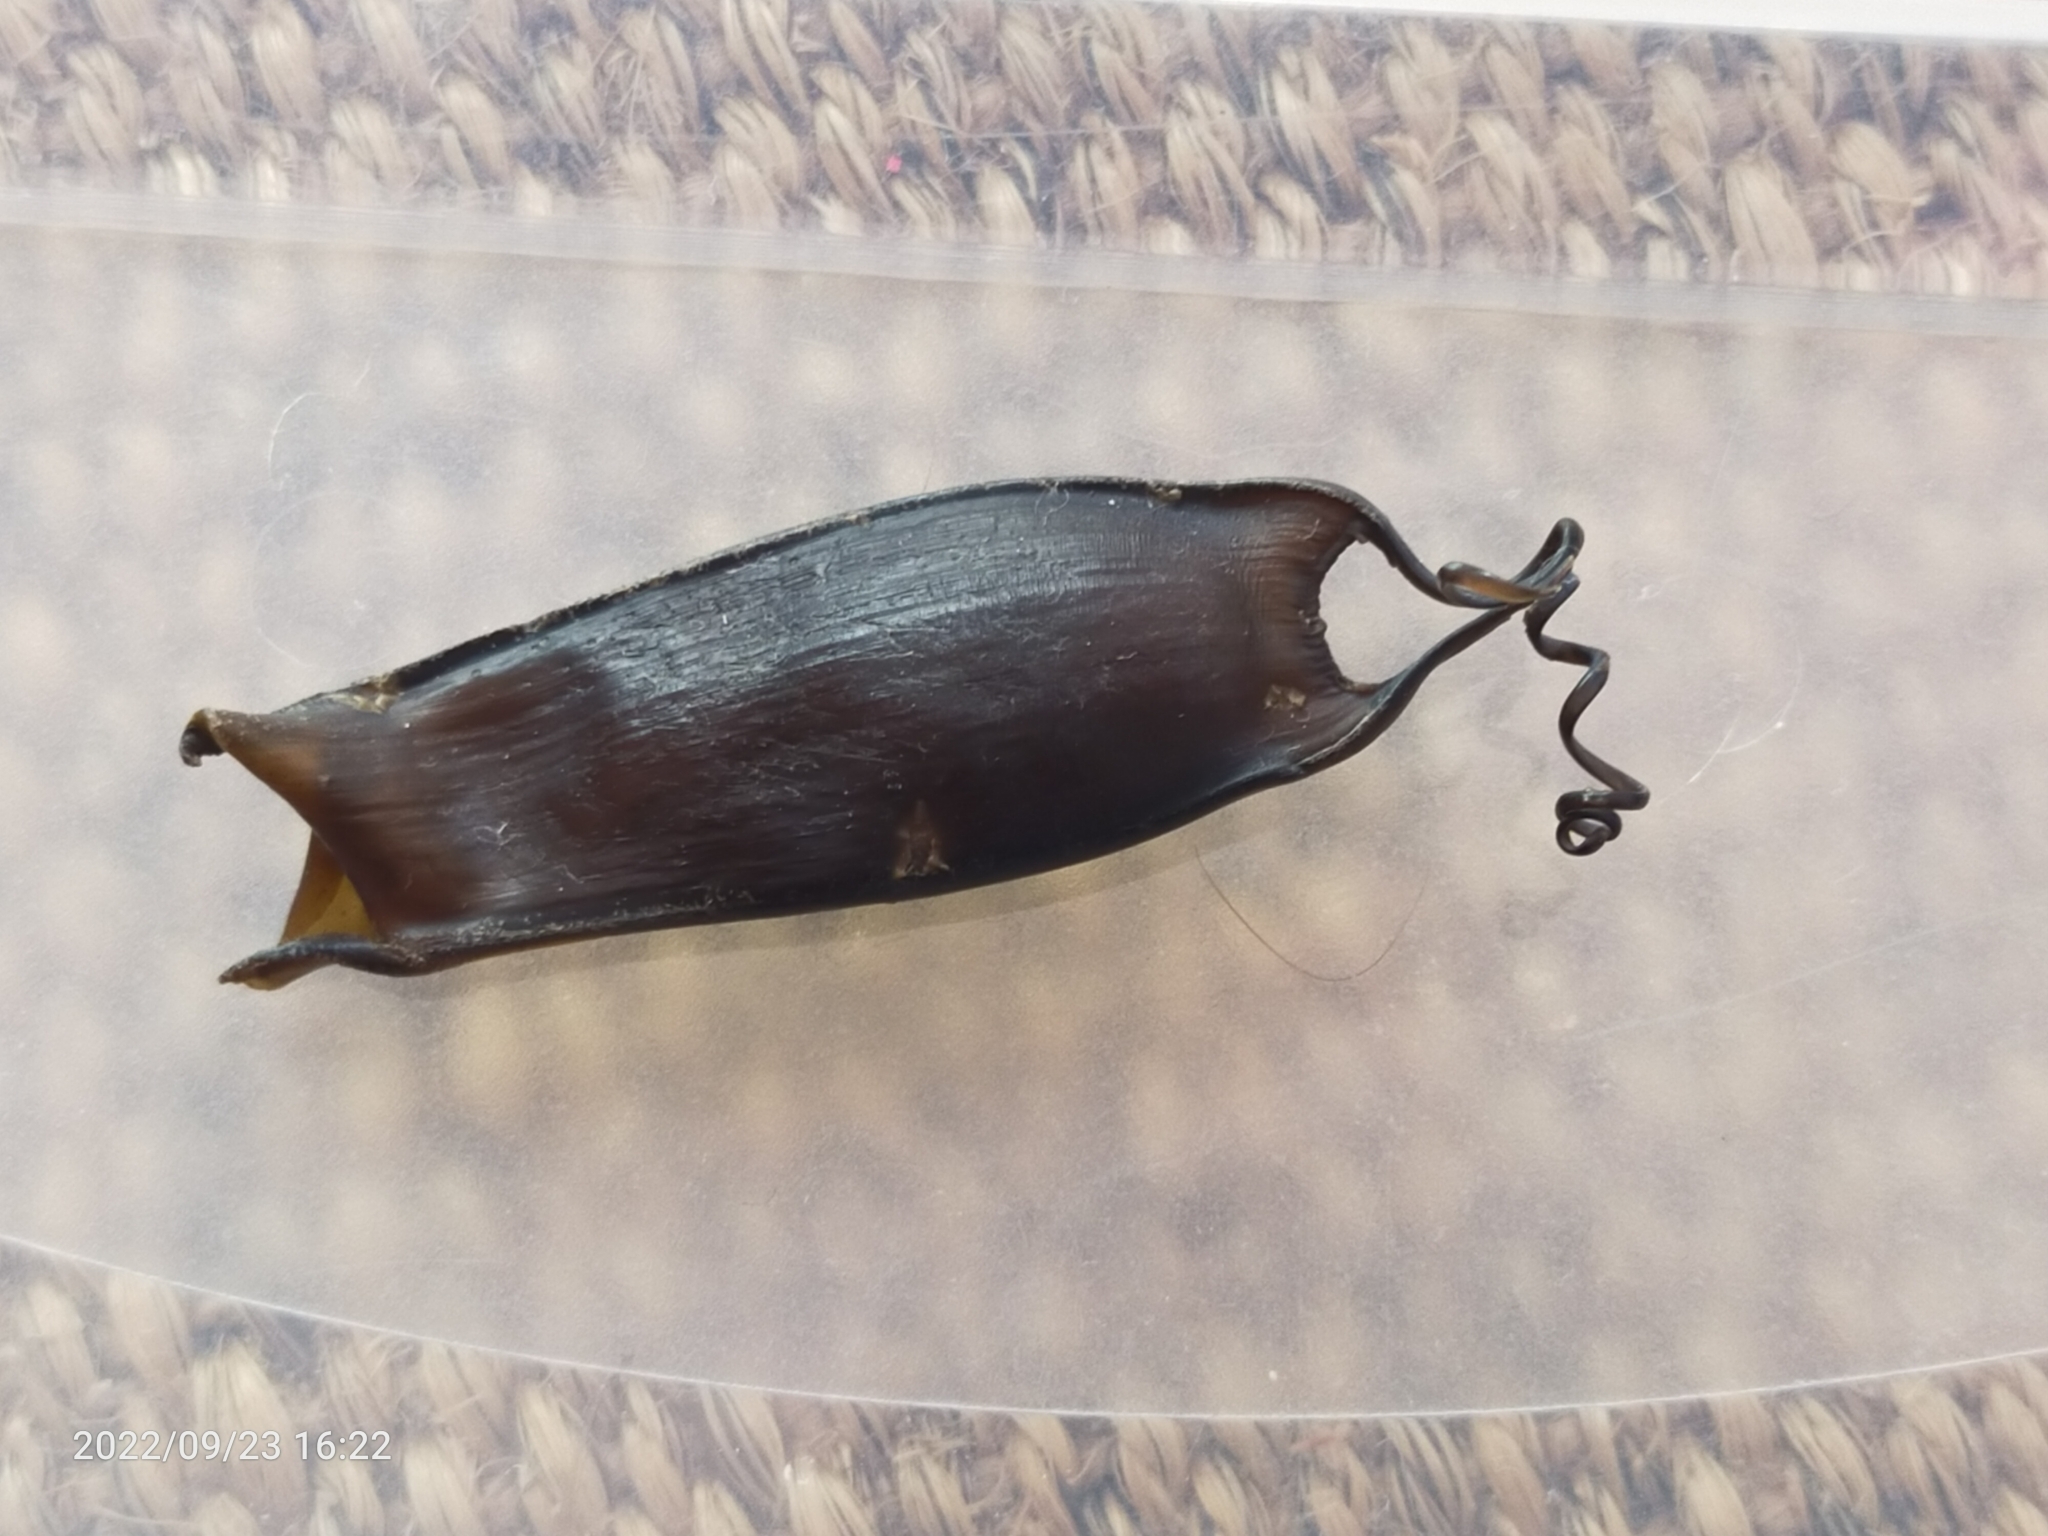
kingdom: Animalia
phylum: Chordata
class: Elasmobranchii
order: Carcharhiniformes
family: Scyliorhinidae
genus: Scyliorhinus
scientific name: Scyliorhinus canicula
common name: Lesser spotted dogfish
